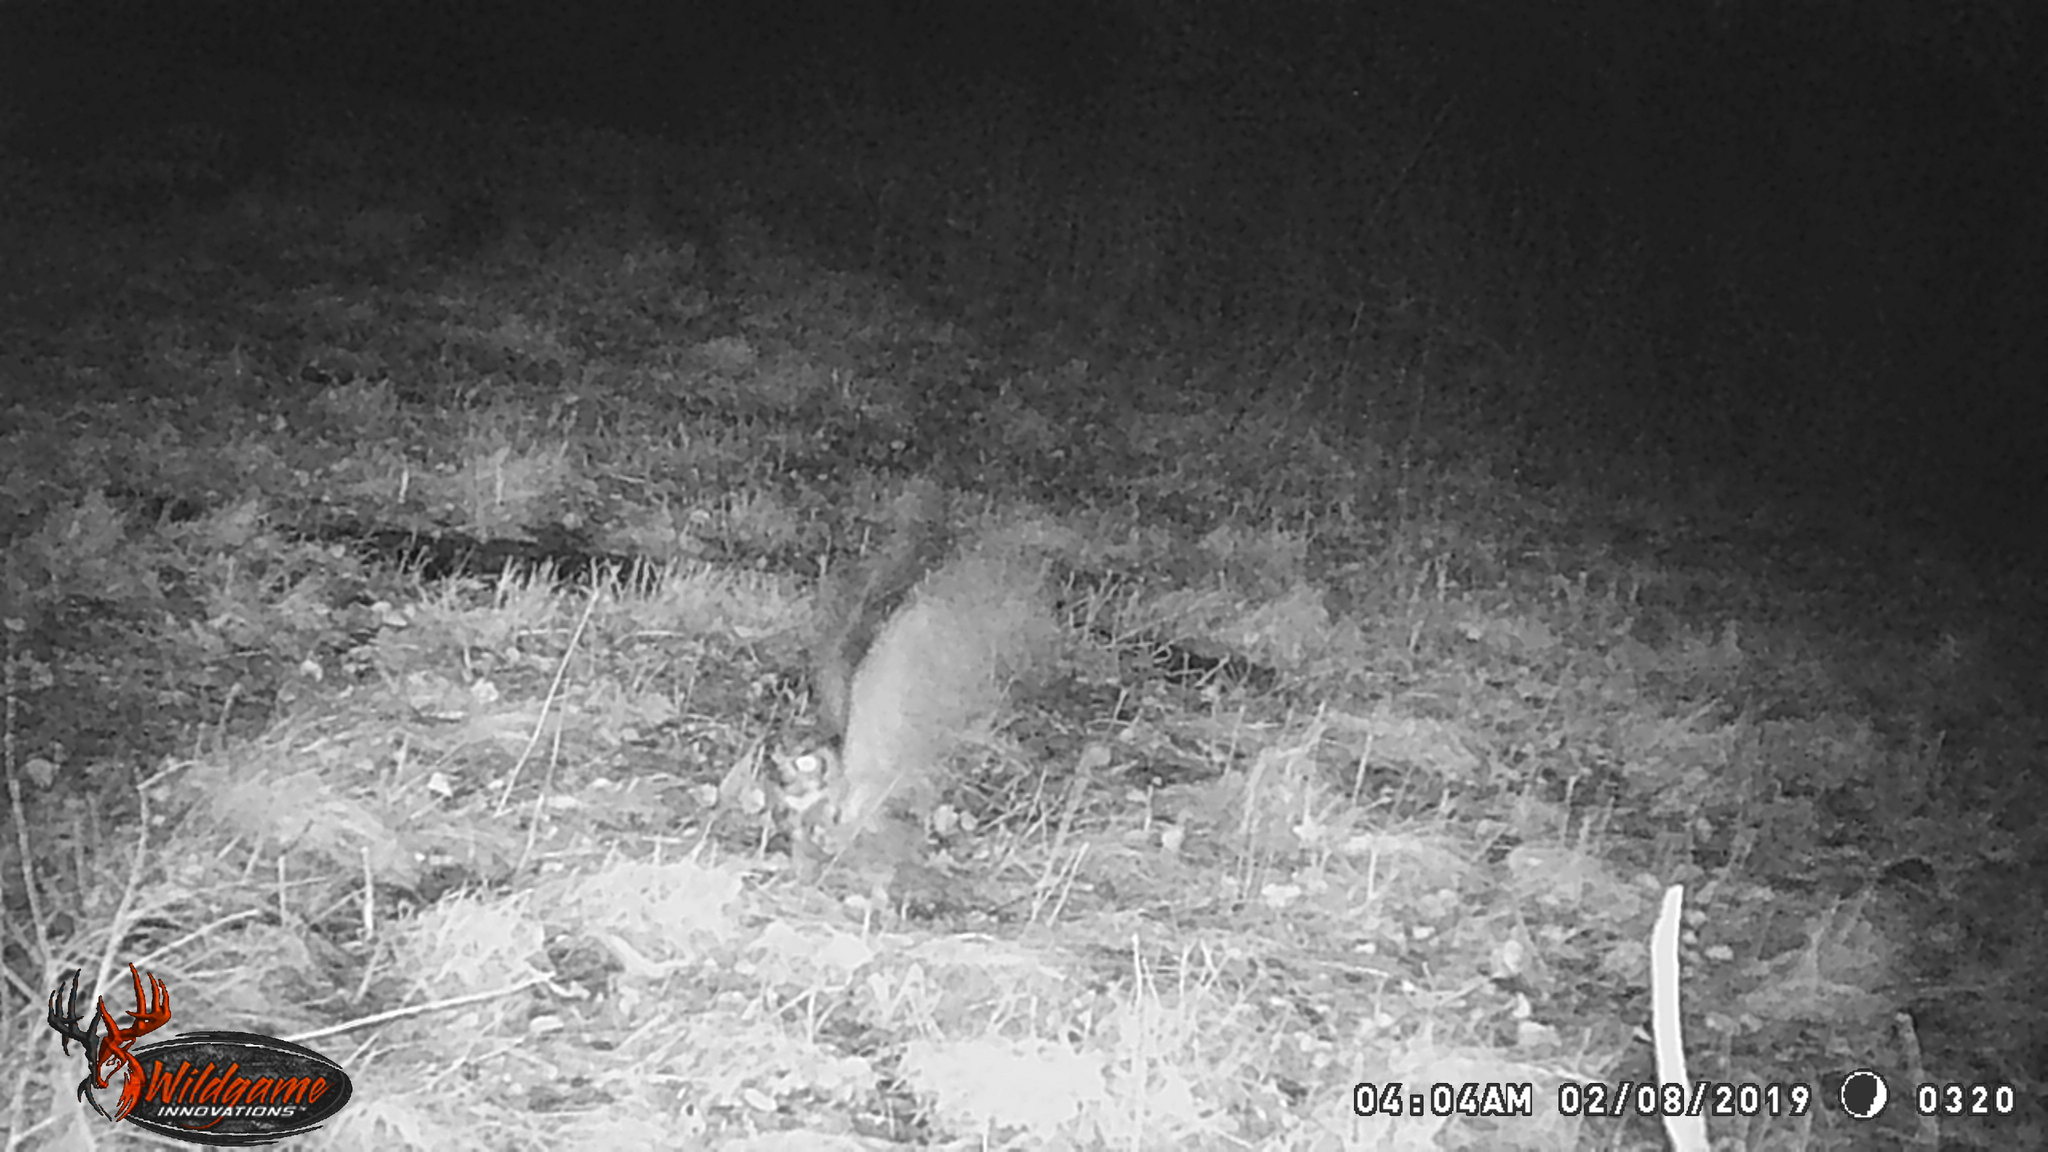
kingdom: Animalia
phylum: Chordata
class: Aves
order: Strigiformes
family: Strigidae
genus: Bubo
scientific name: Bubo virginianus
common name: Great horned owl
